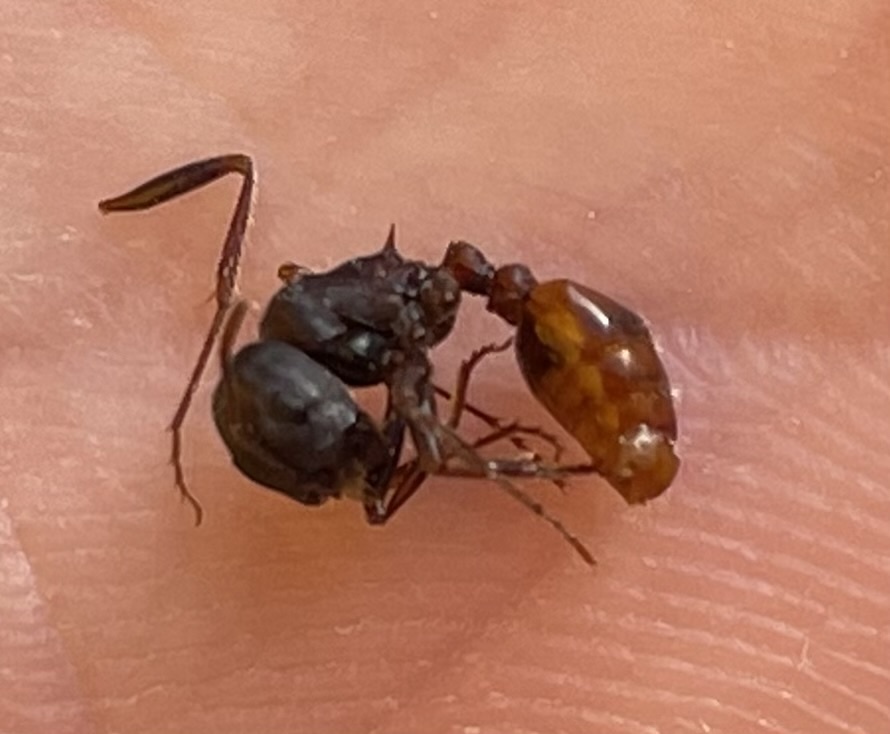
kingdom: Animalia
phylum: Arthropoda
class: Insecta
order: Hymenoptera
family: Formicidae
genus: Pogonomyrmex
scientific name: Pogonomyrmex rugosus
